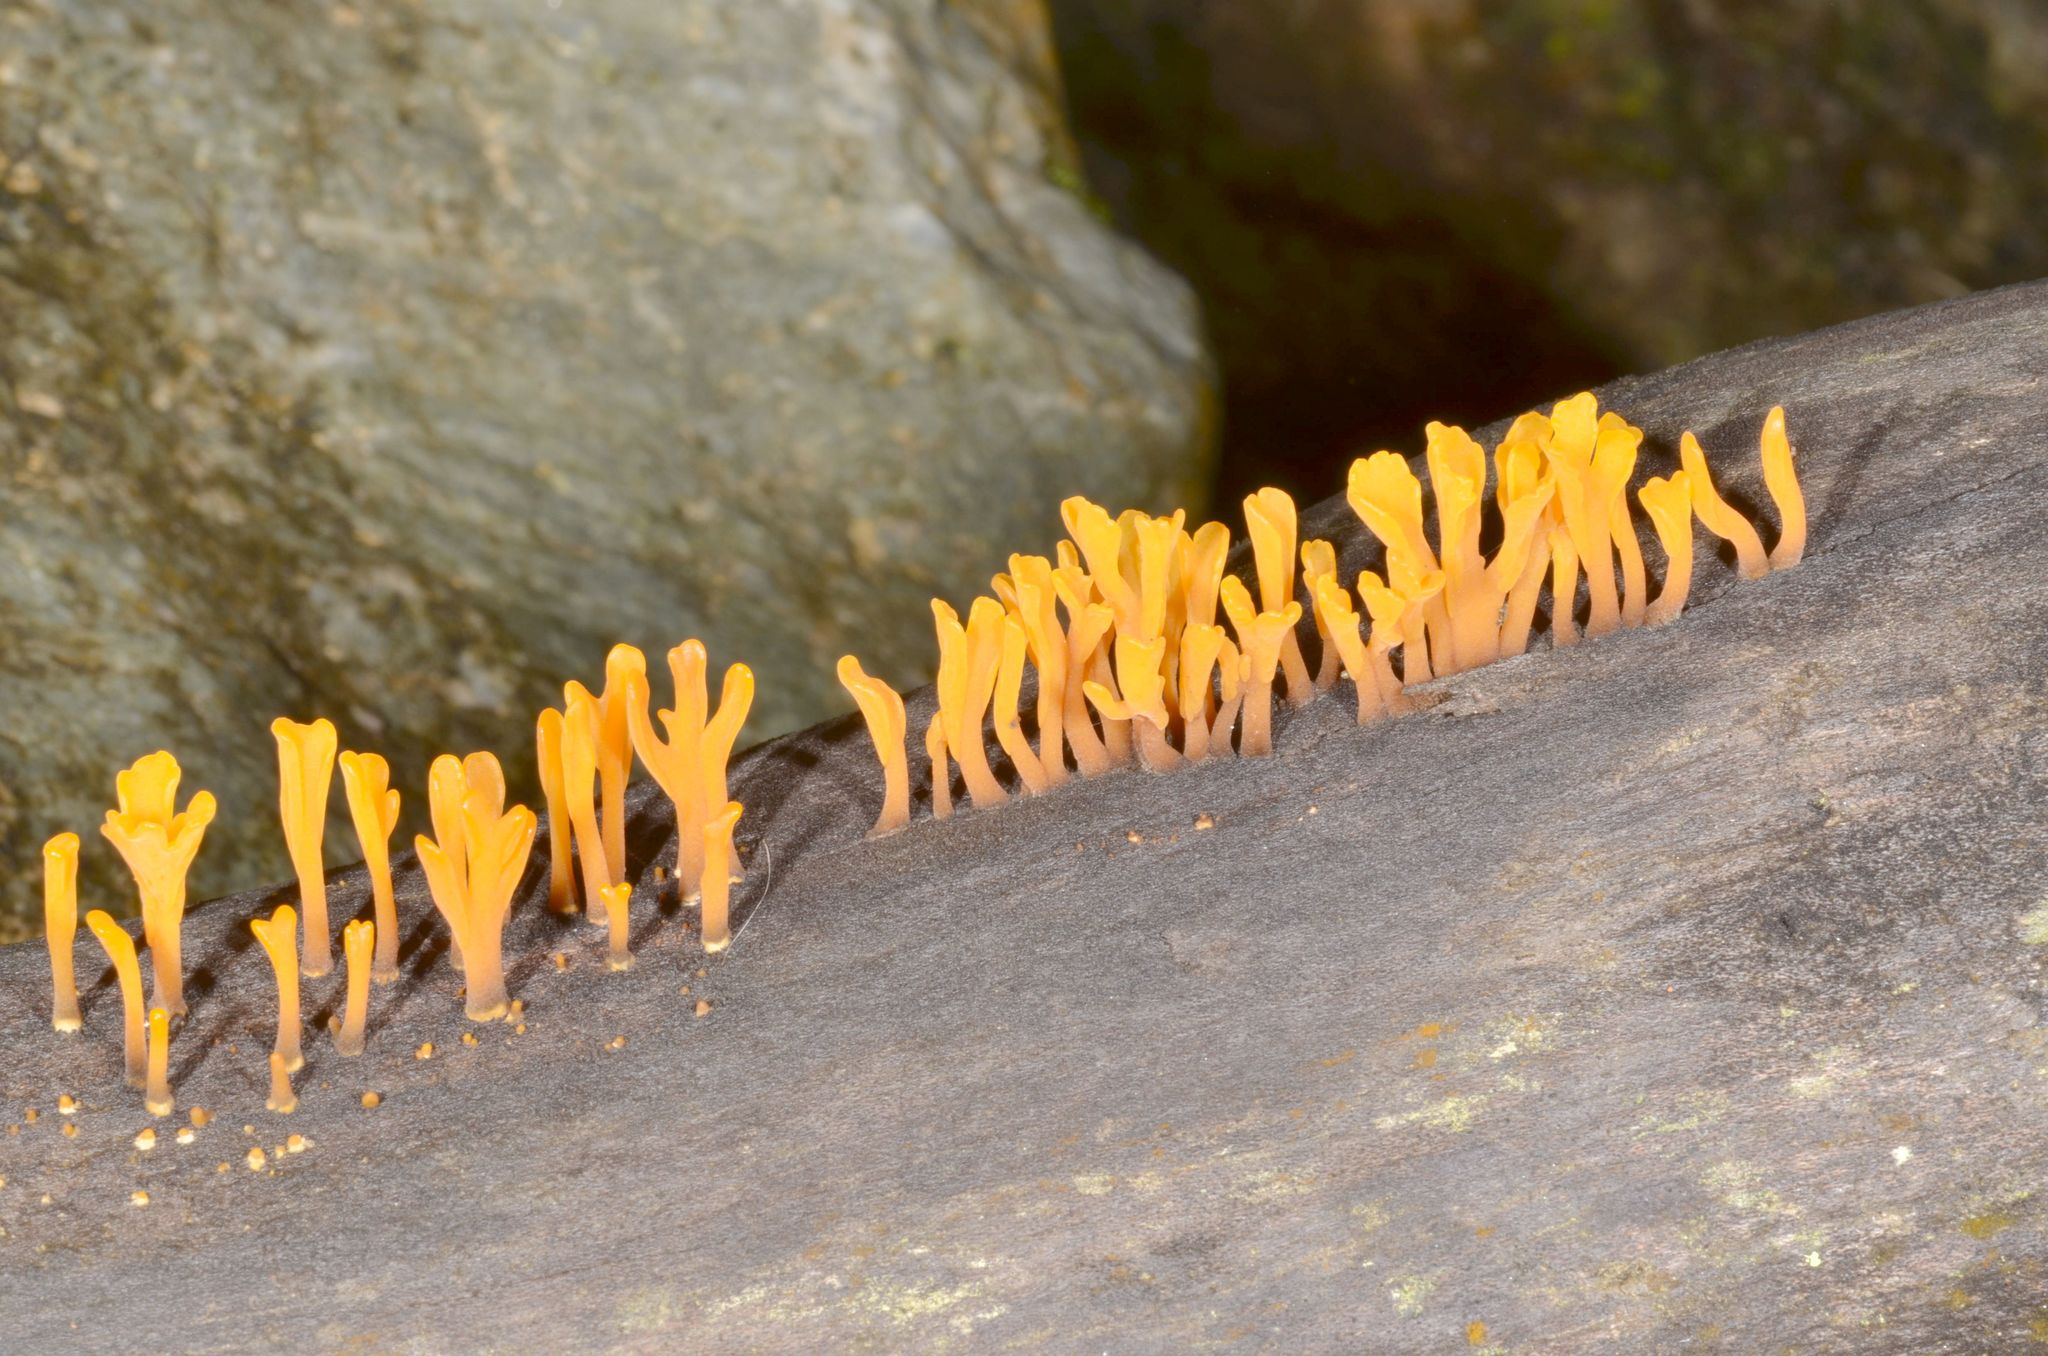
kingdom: Fungi
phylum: Basidiomycota
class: Dacrymycetes
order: Dacrymycetales
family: Dacrymycetaceae
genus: Dacrymyces
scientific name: Dacrymyces spathularius
